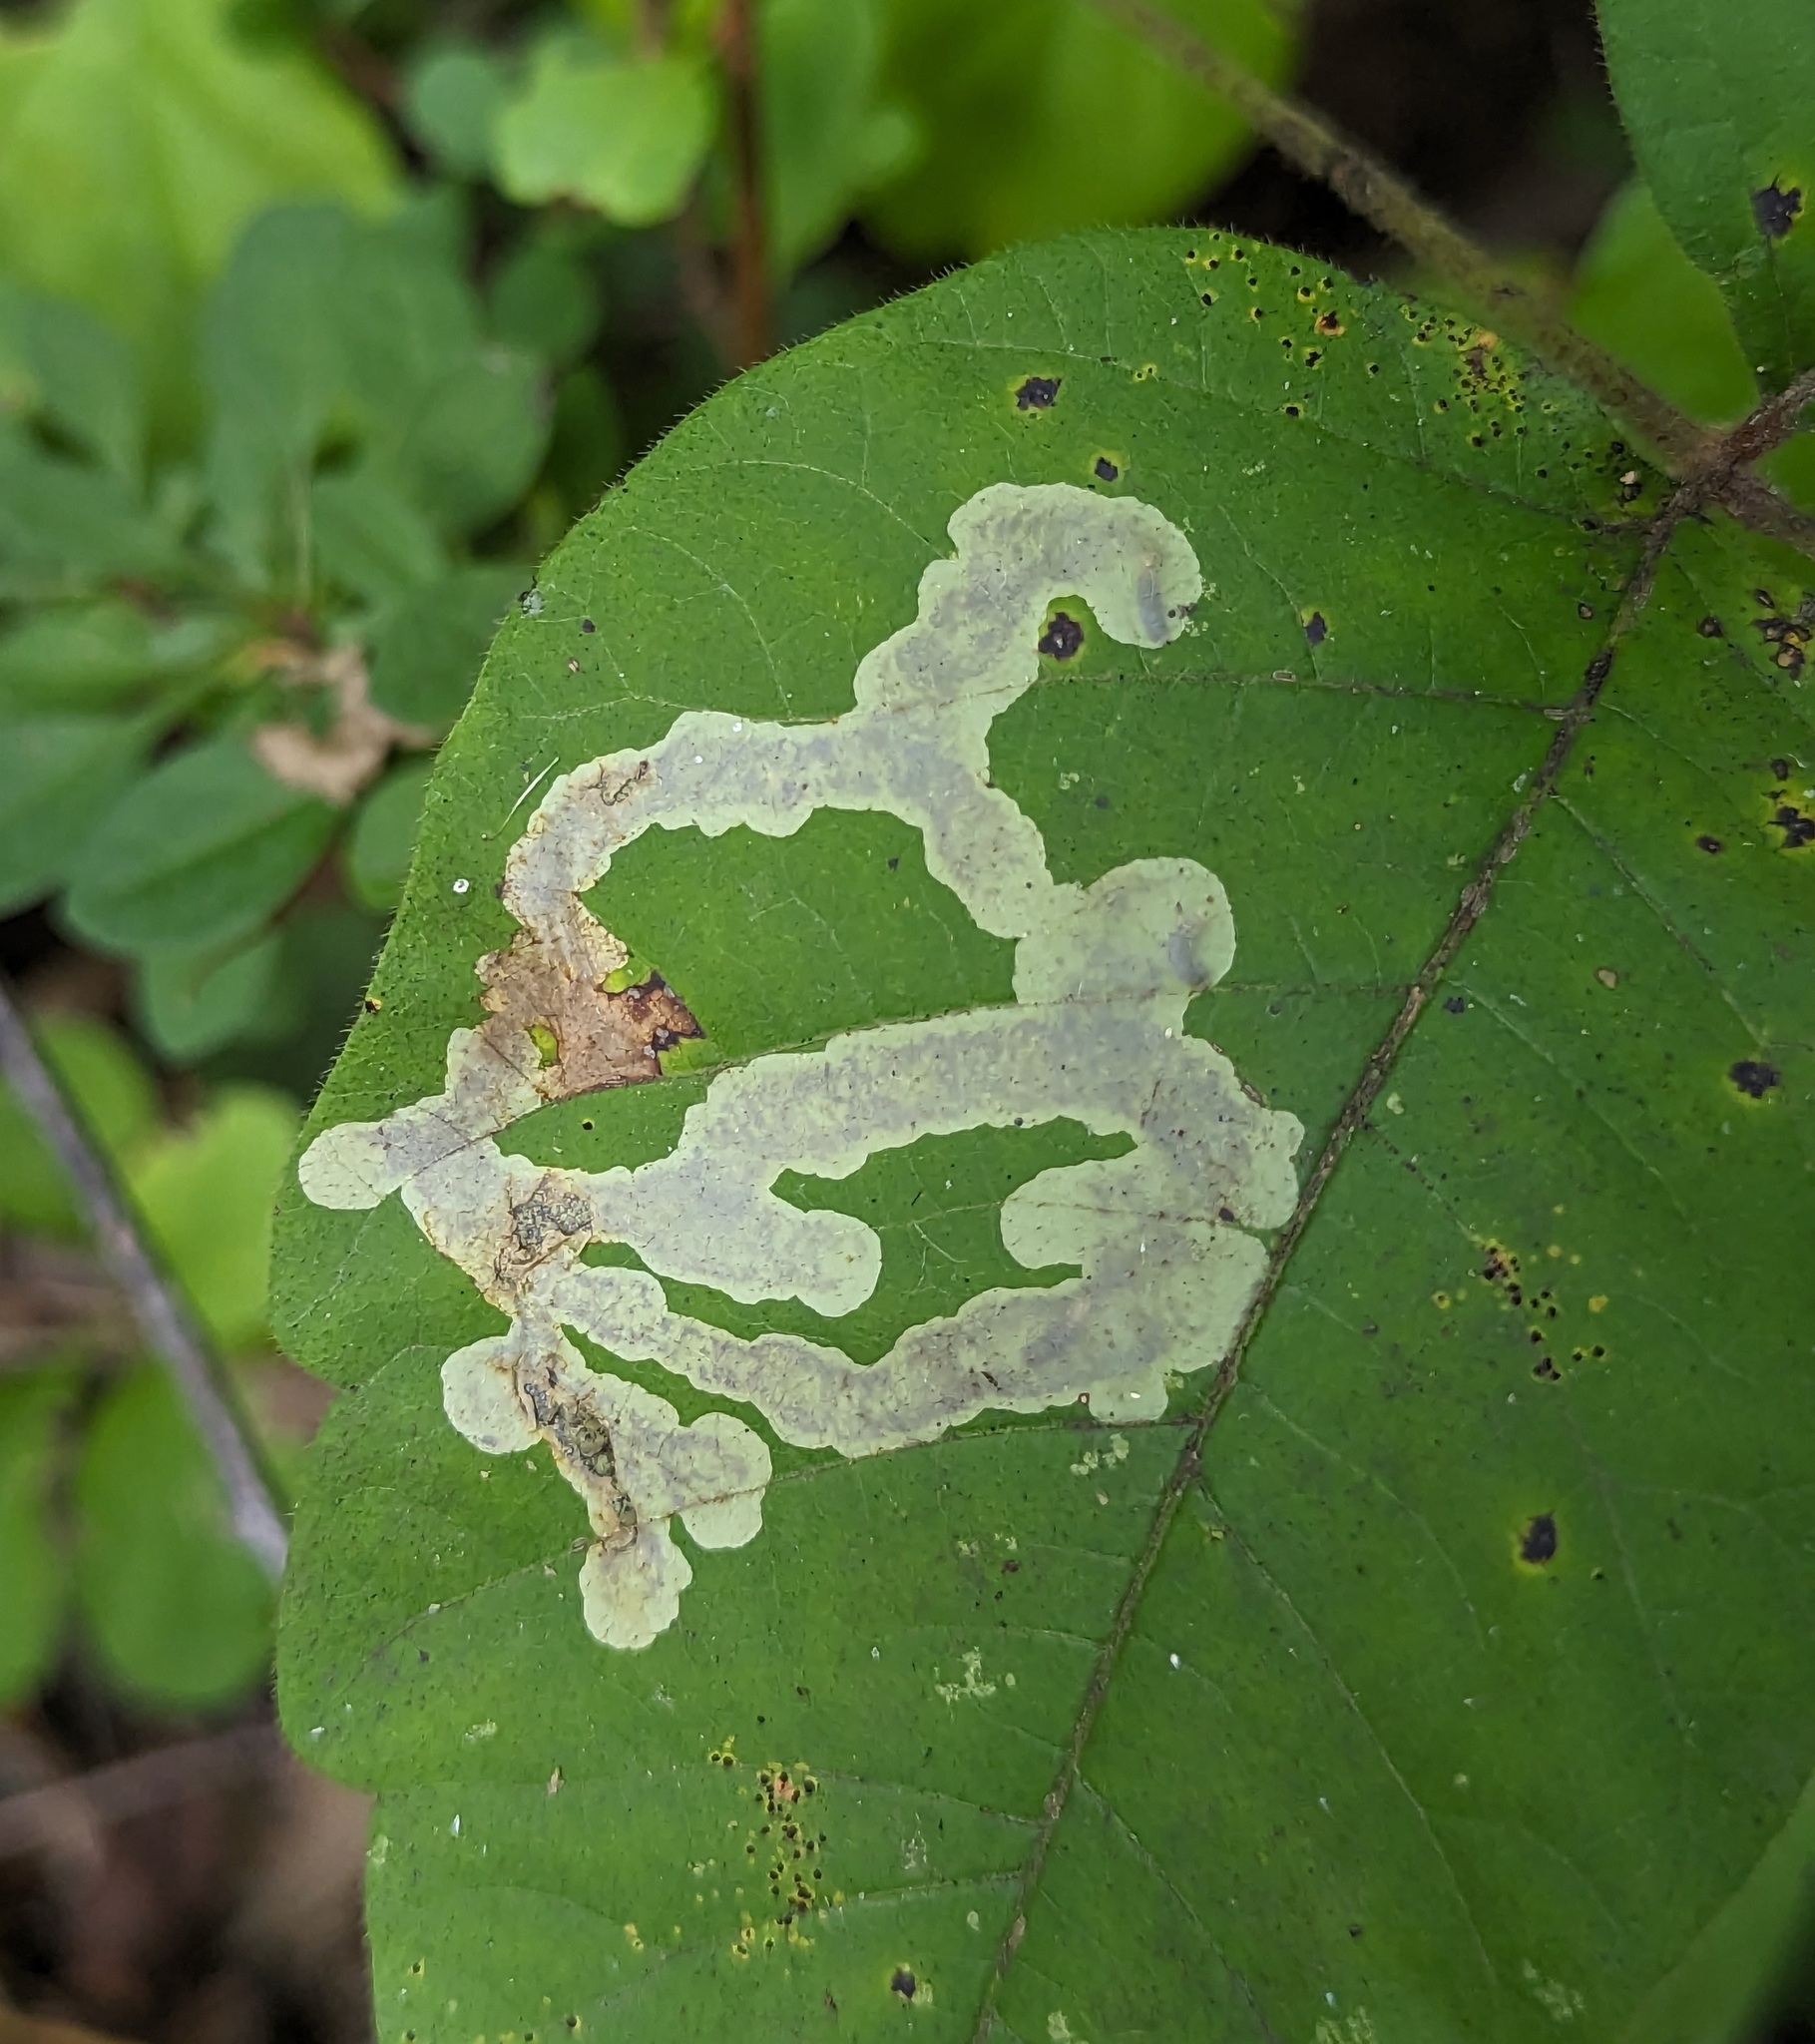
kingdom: Animalia
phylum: Arthropoda
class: Insecta
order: Lepidoptera
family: Gracillariidae
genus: Cameraria
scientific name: Cameraria guttifinitella
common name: Poison ivy leaf-miner moth
